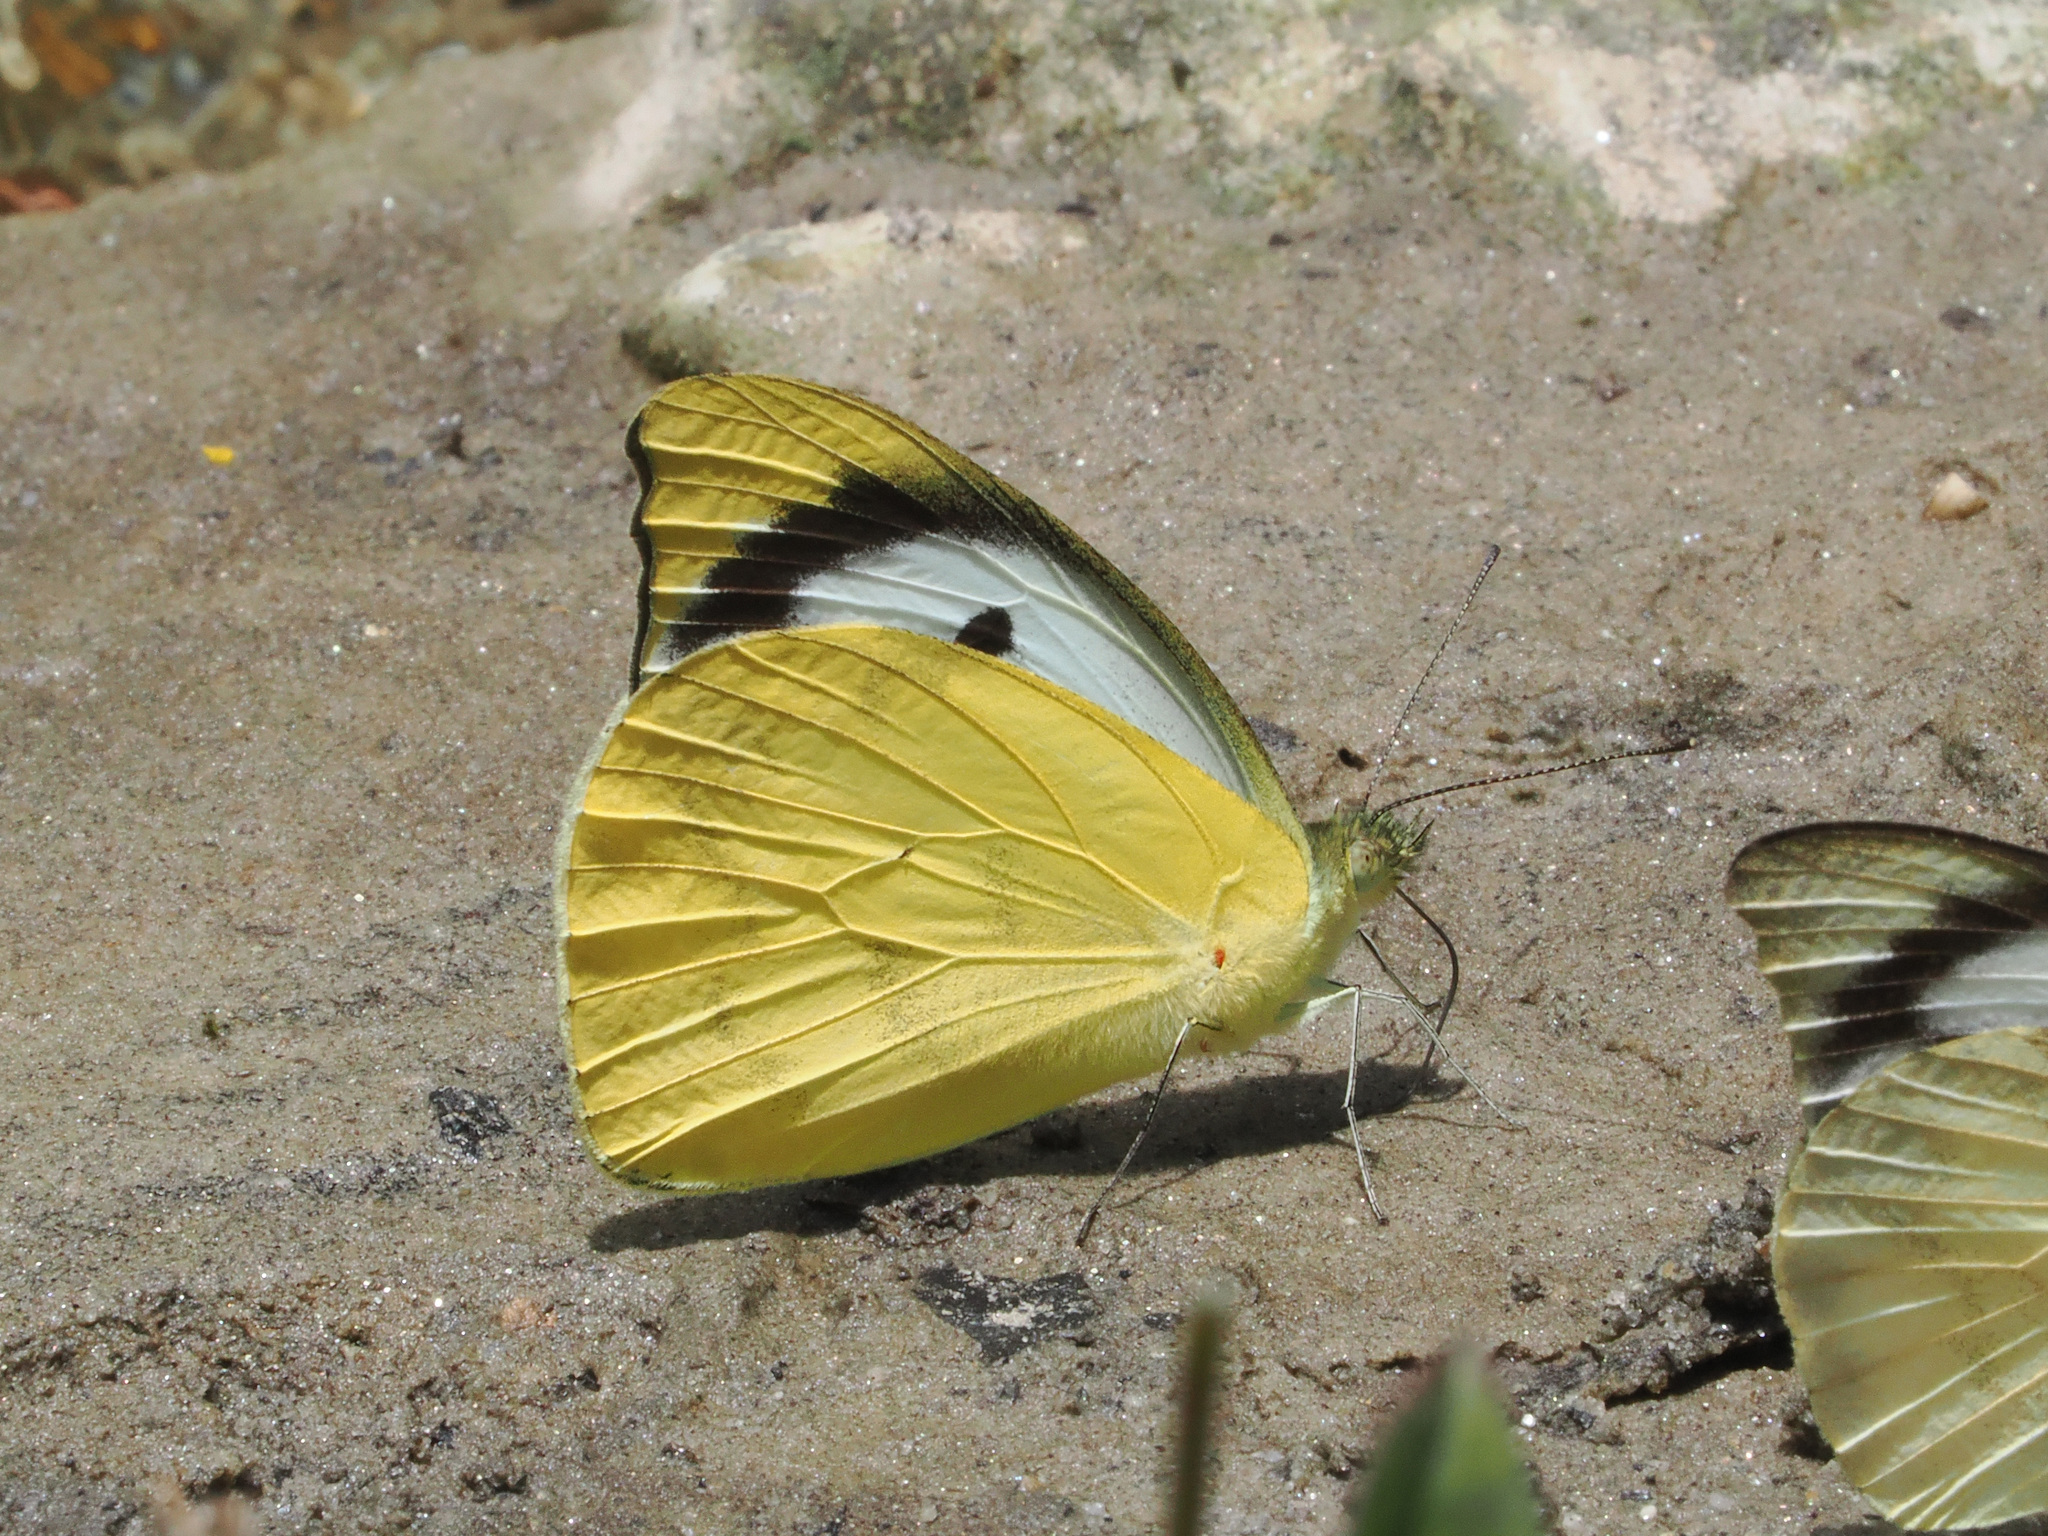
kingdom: Animalia
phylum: Arthropoda
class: Insecta
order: Lepidoptera
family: Pieridae
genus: Appias
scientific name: Appias lalage
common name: Spot puffin
